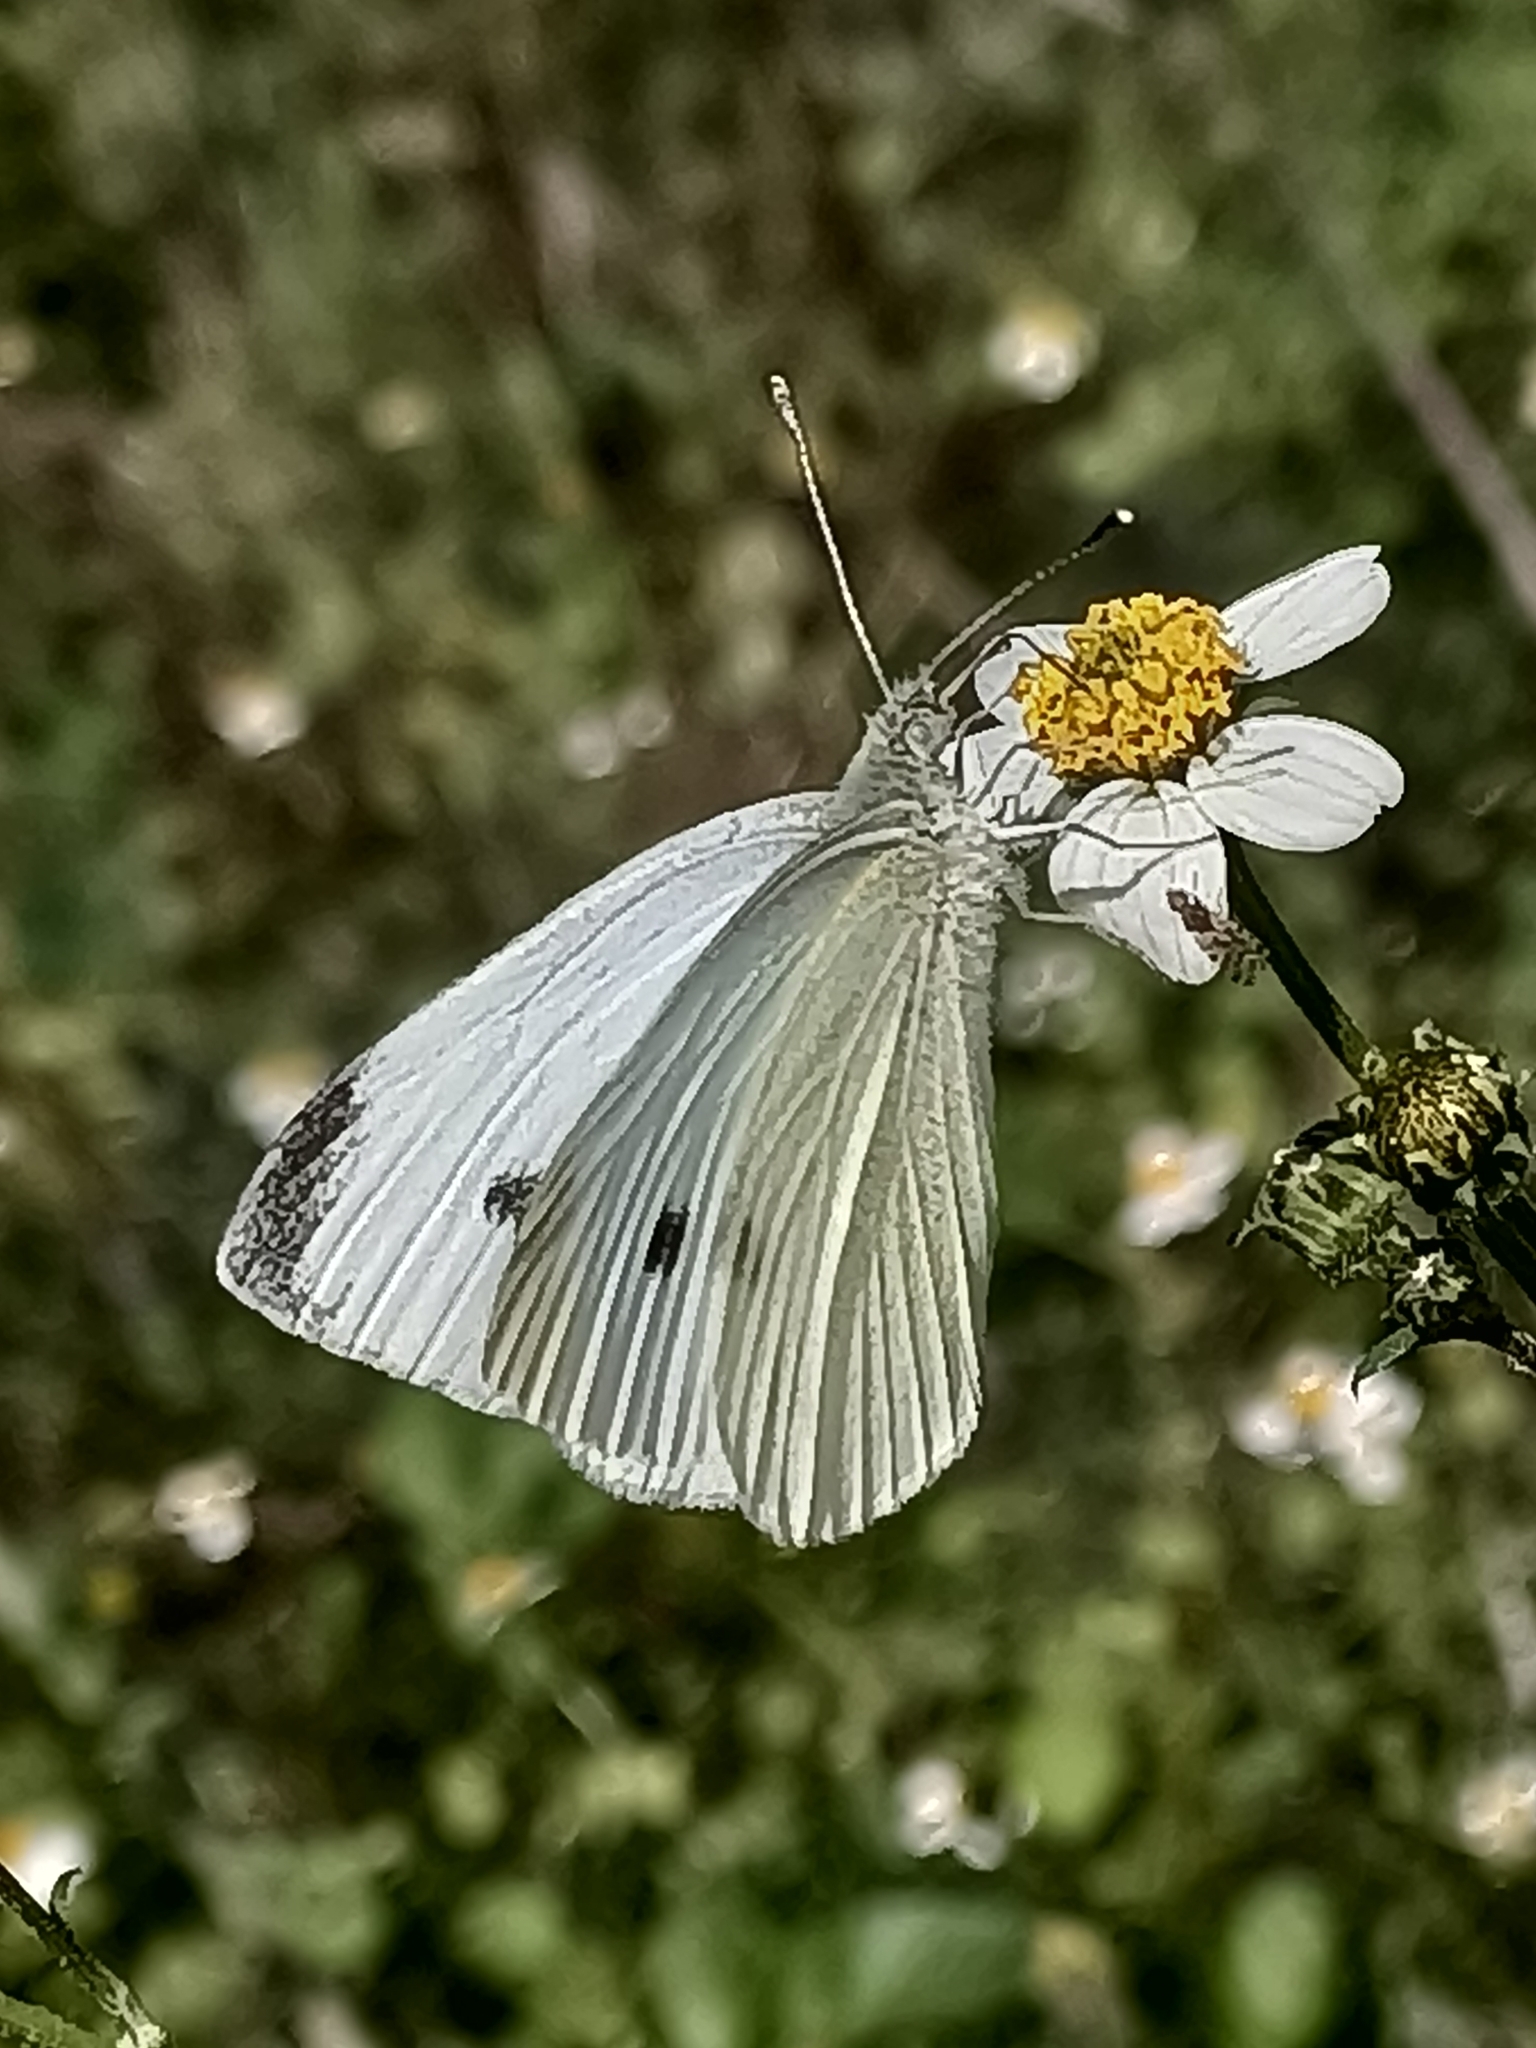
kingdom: Animalia
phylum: Arthropoda
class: Insecta
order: Lepidoptera
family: Pieridae
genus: Pieris
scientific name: Pieris rapae
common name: Small white
